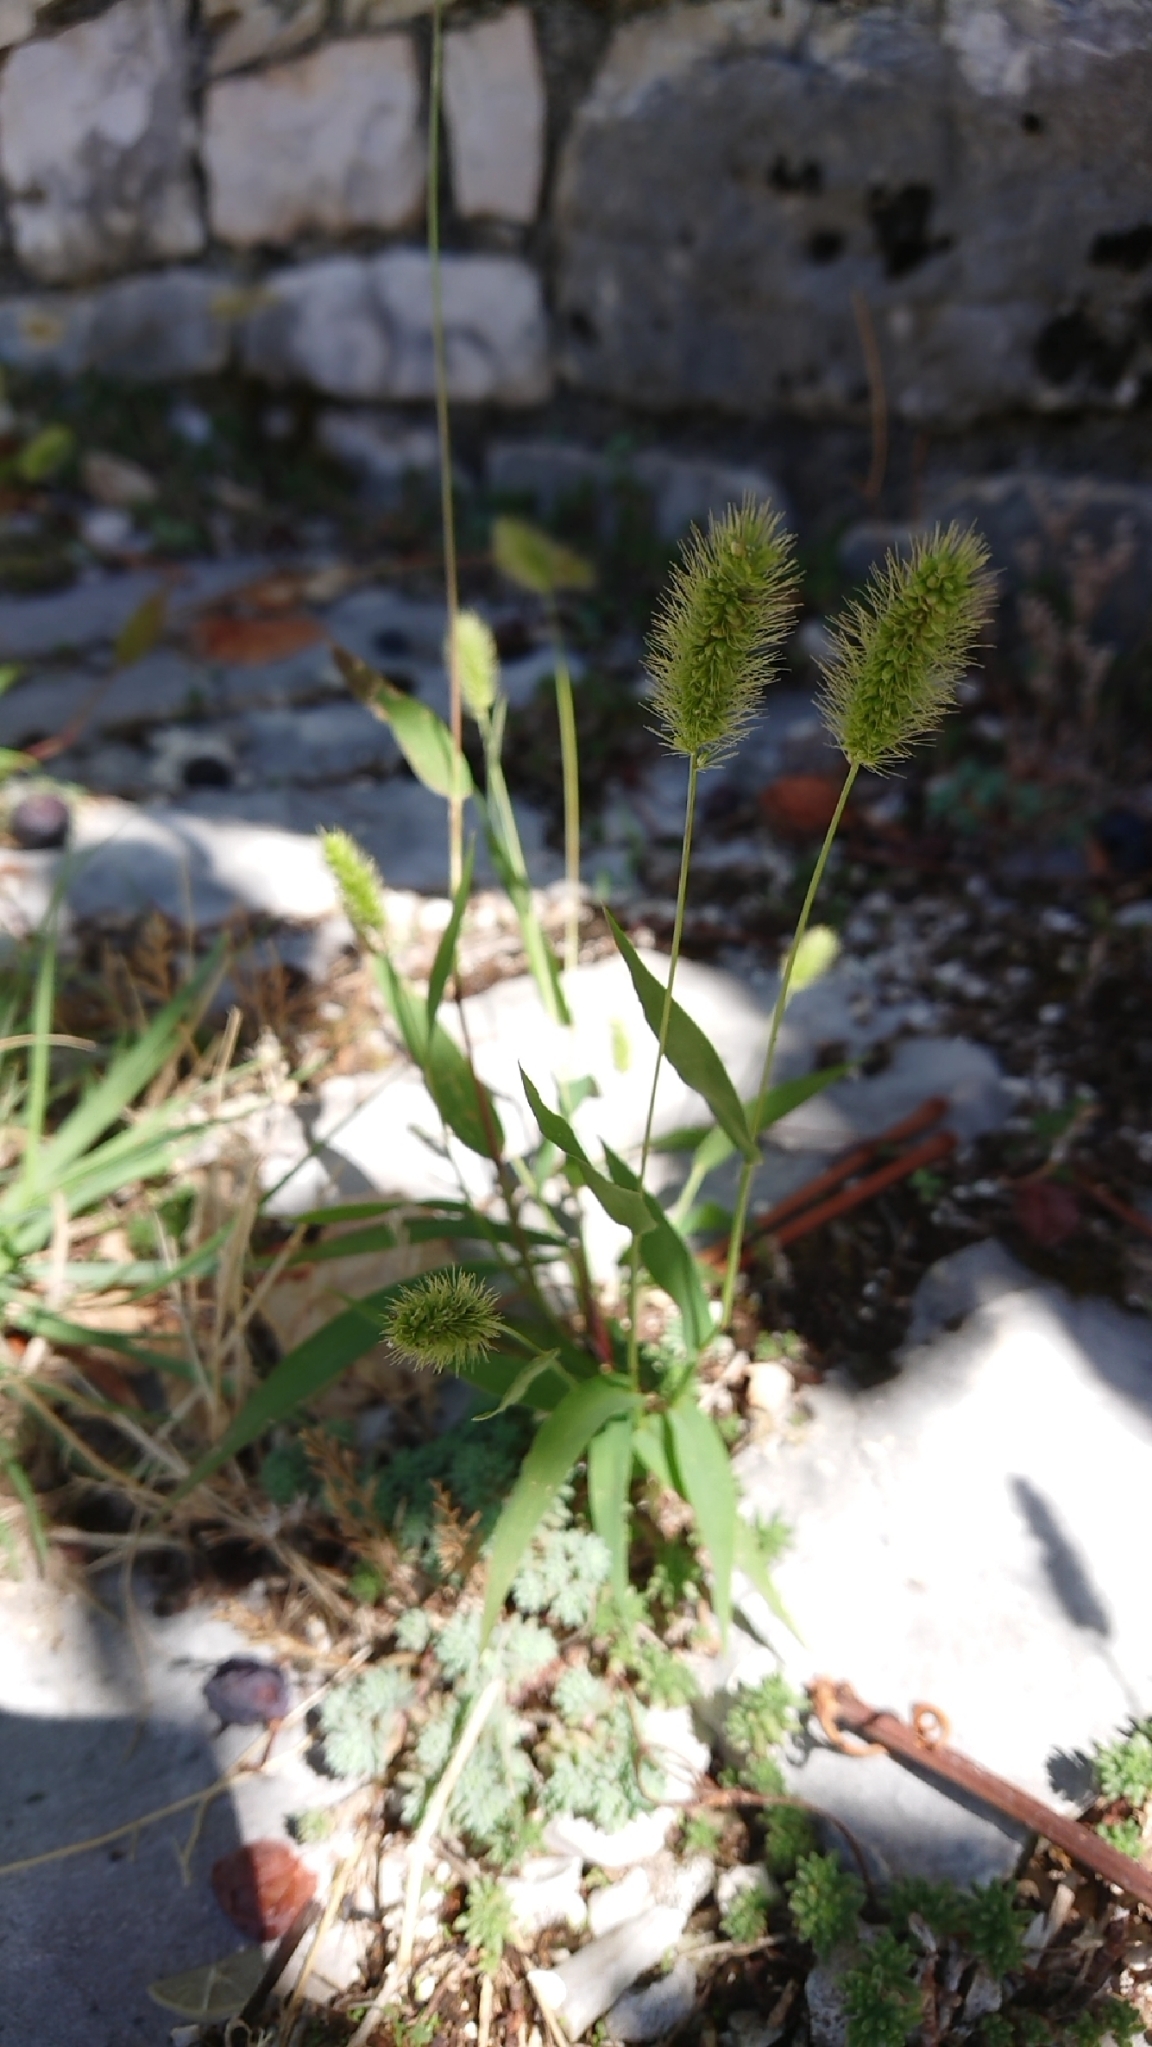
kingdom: Plantae
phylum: Tracheophyta
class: Liliopsida
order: Poales
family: Poaceae
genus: Setaria
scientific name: Setaria viridis
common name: Green bristlegrass
